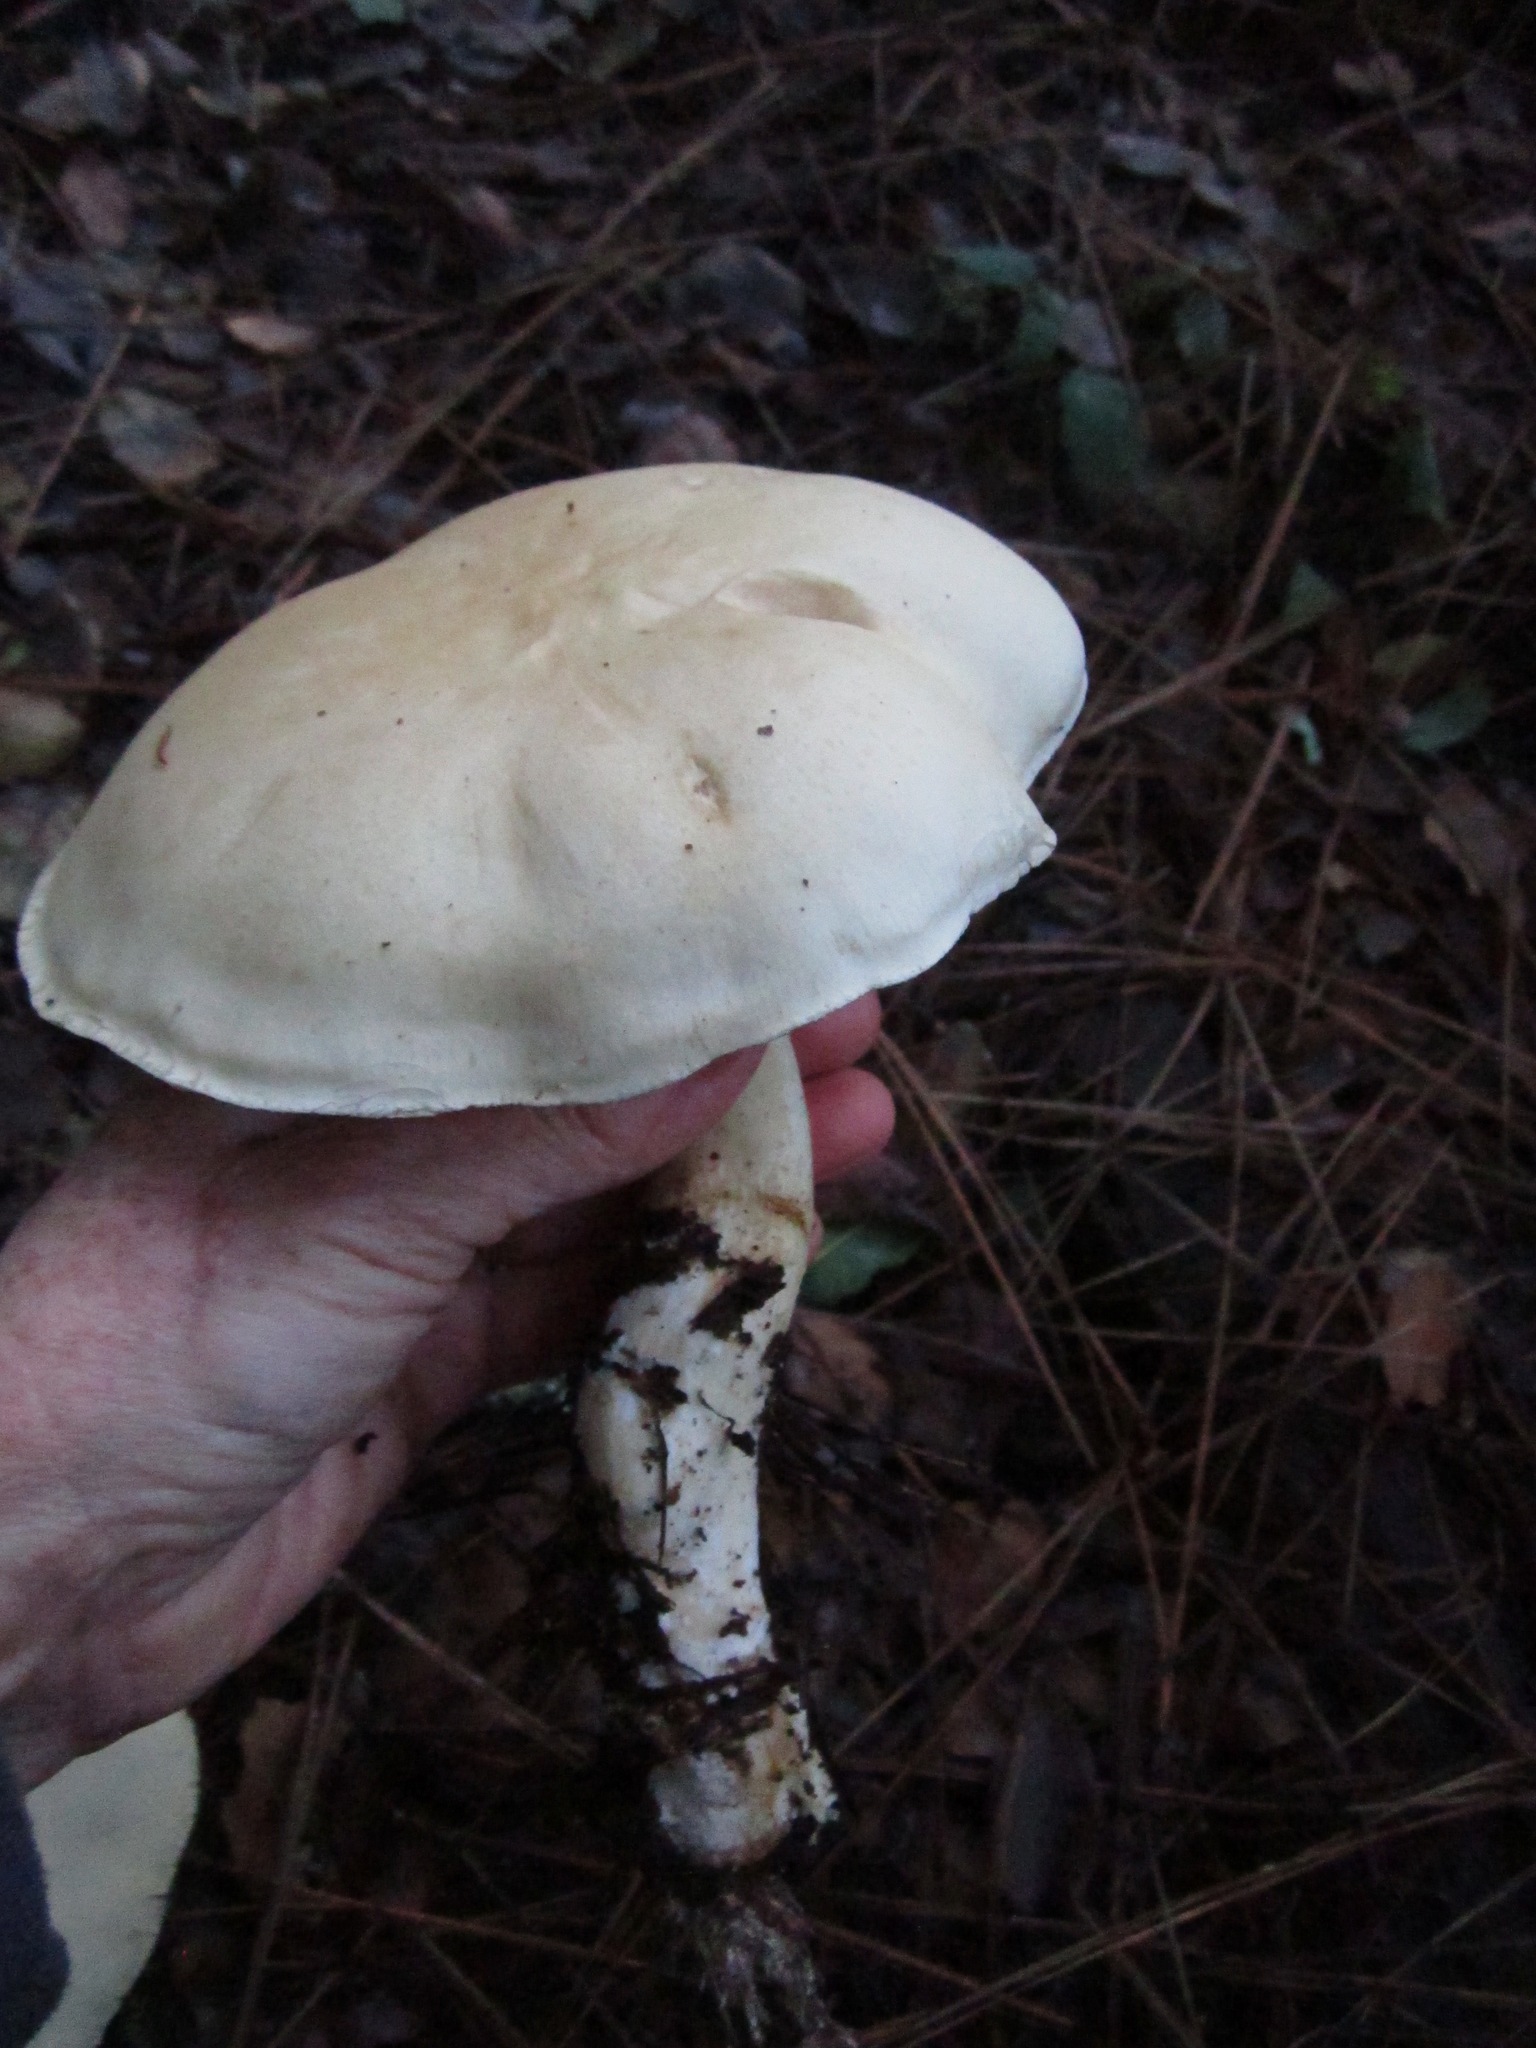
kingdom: Fungi
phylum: Basidiomycota
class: Agaricomycetes
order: Agaricales
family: Tricholomataceae
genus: Leucopaxillus
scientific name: Leucopaxillus albissimus
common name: Large white leucopax
